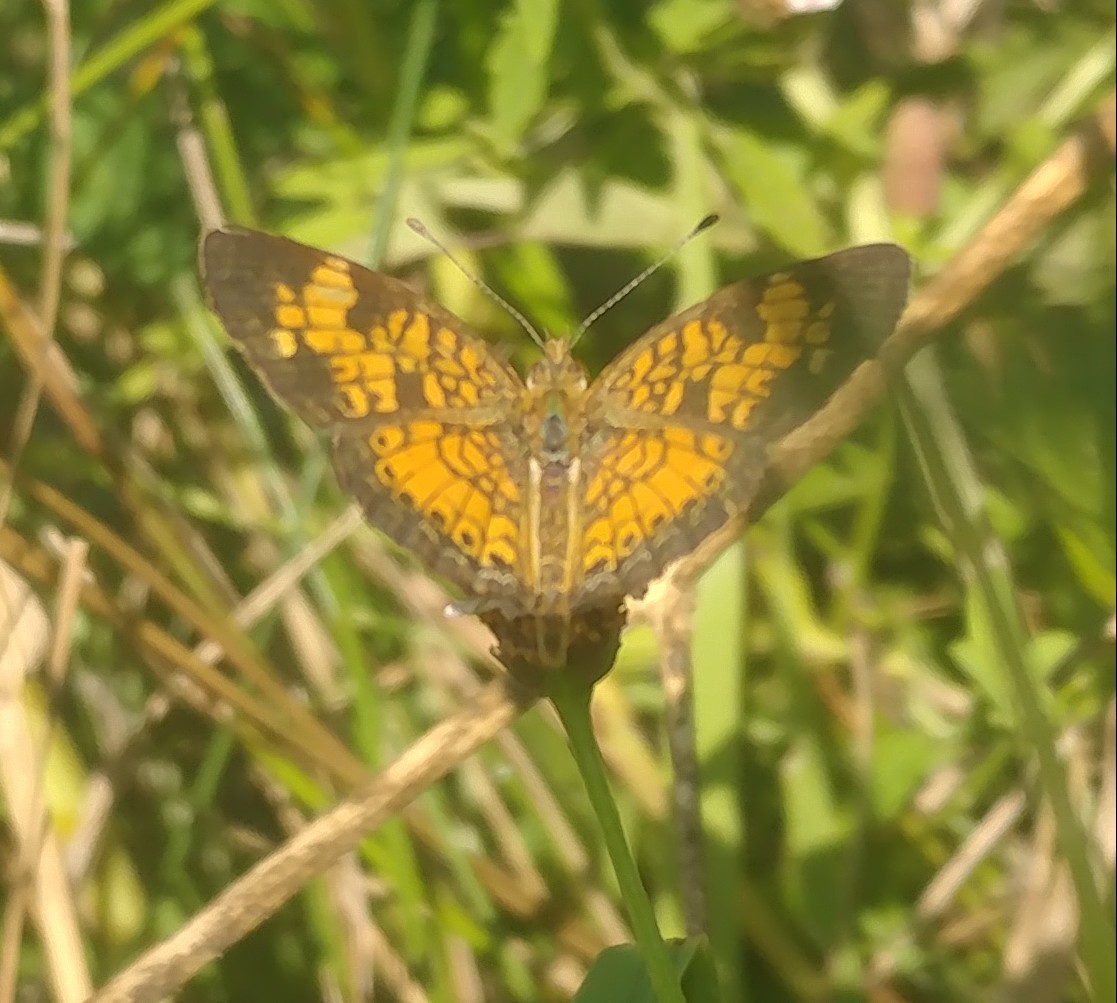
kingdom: Animalia
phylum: Arthropoda
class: Insecta
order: Lepidoptera
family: Nymphalidae
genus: Phyciodes
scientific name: Phyciodes tharos
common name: Pearl crescent
